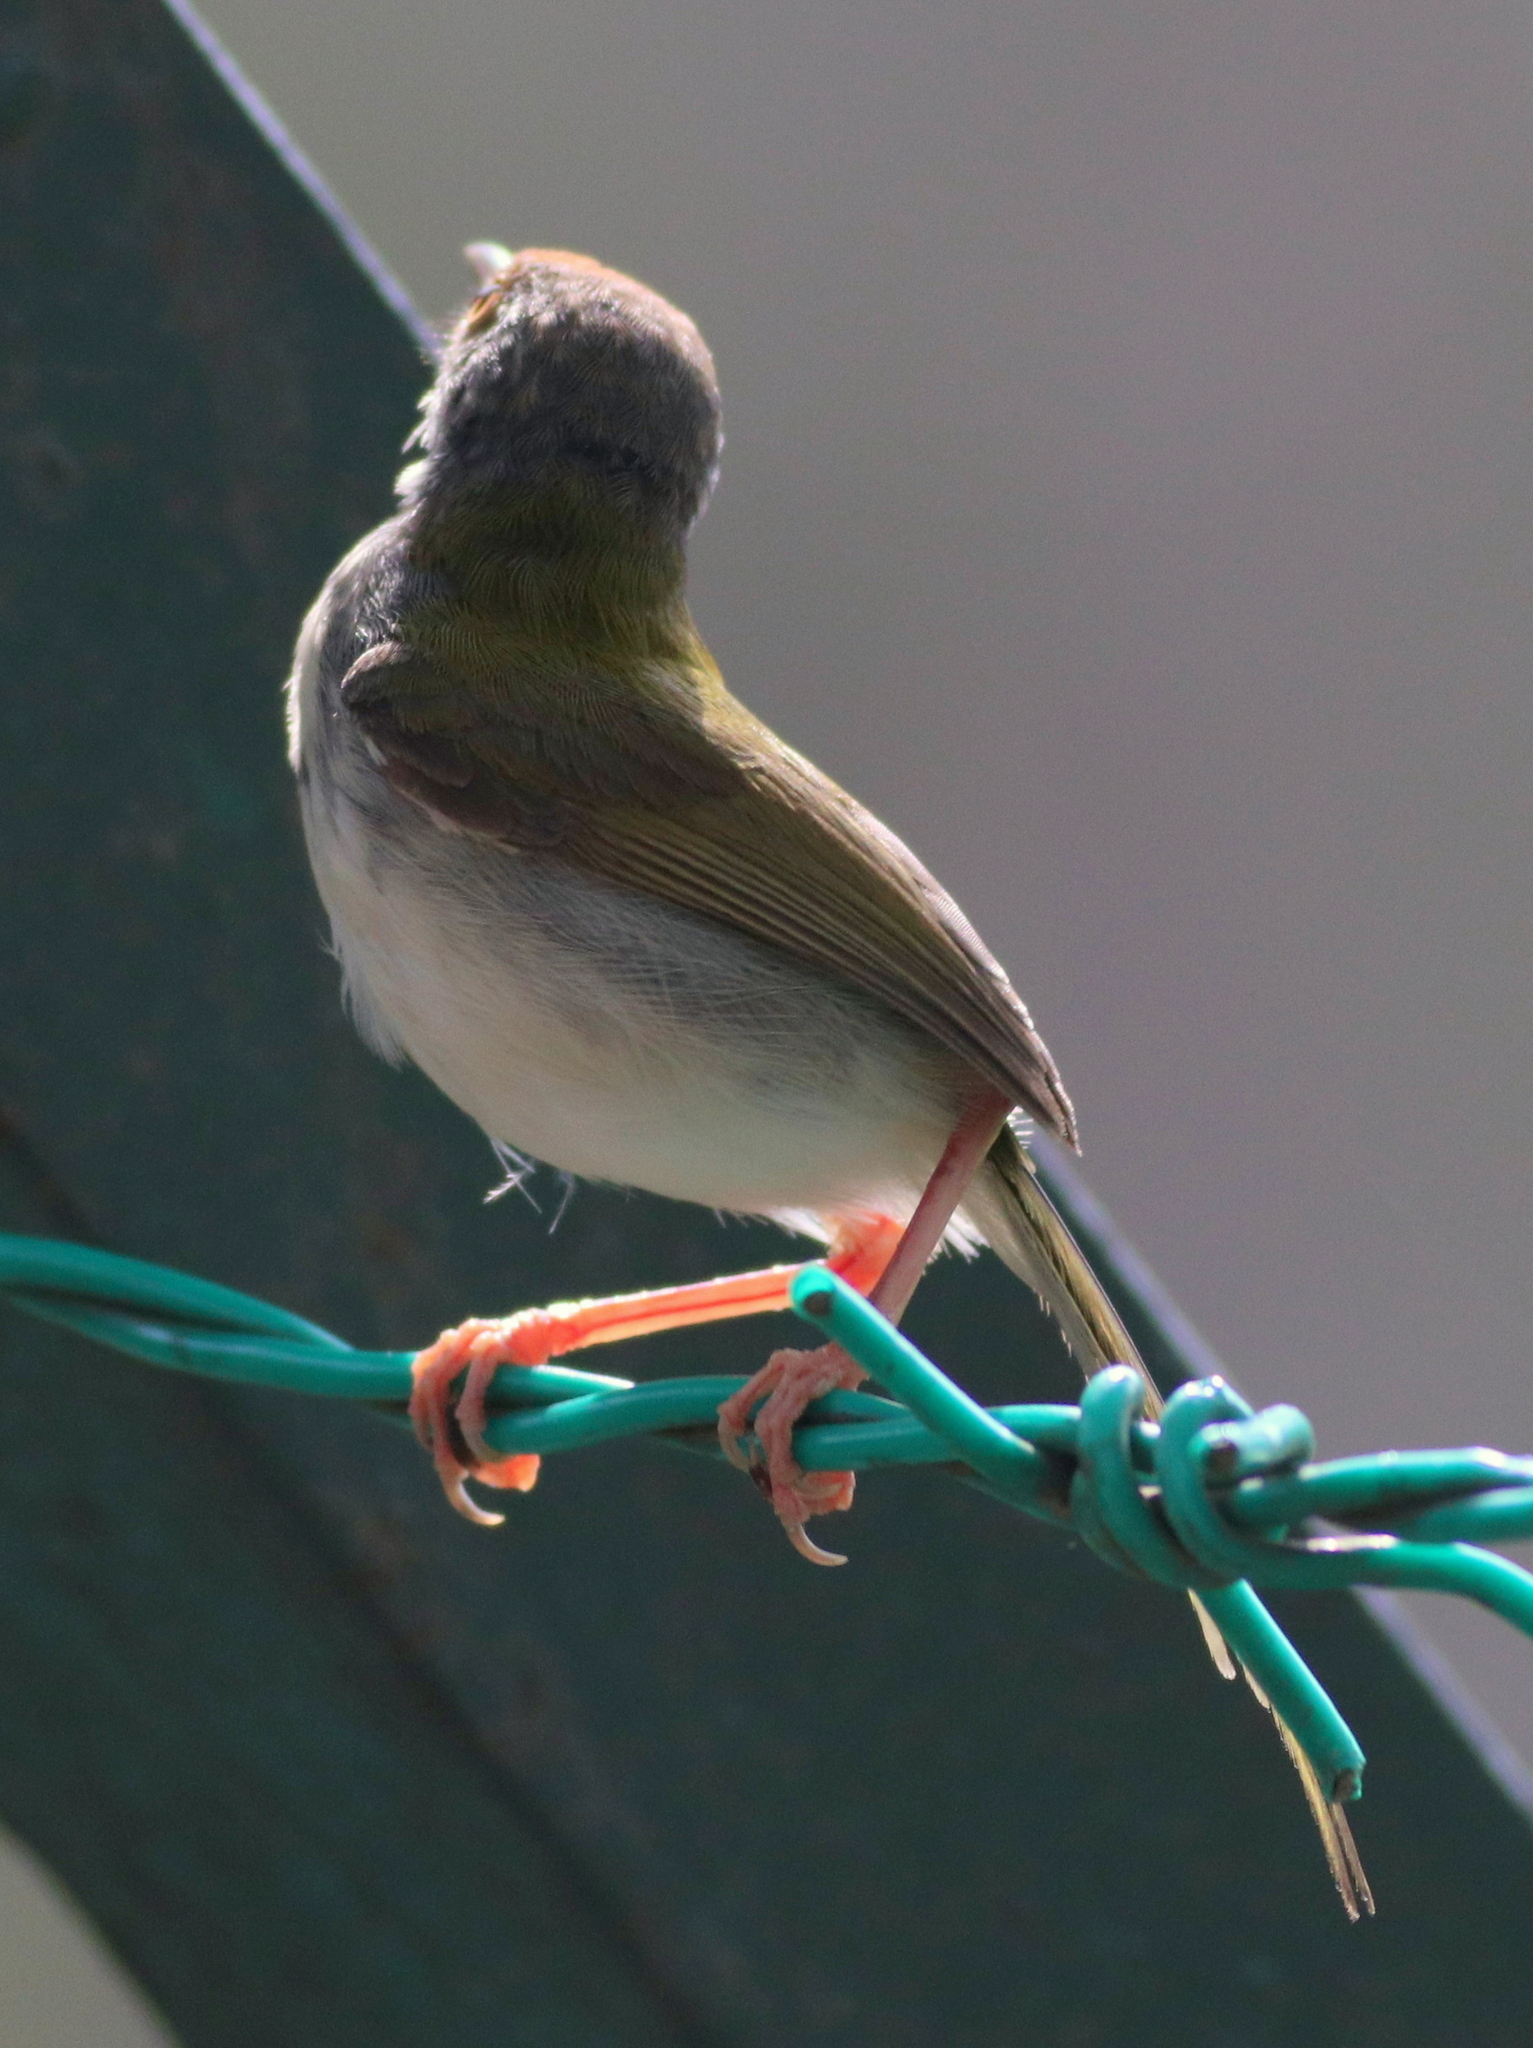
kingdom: Animalia
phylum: Chordata
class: Aves
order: Passeriformes
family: Cisticolidae
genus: Orthotomus
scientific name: Orthotomus sutorius
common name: Common tailorbird
